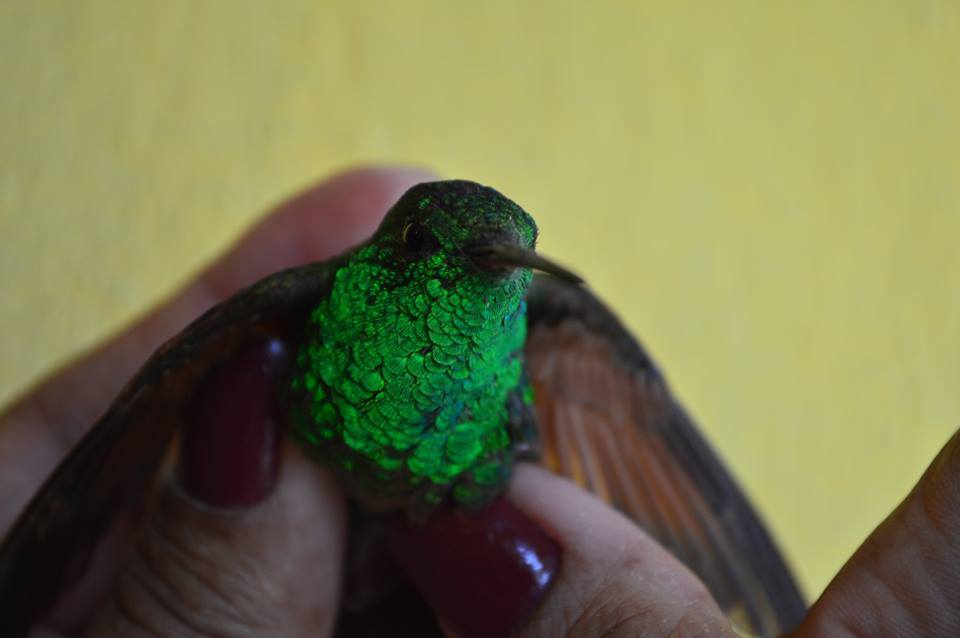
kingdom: Animalia
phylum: Chordata
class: Aves
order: Apodiformes
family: Trochilidae
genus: Saucerottia
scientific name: Saucerottia beryllina
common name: Berylline hummingbird
